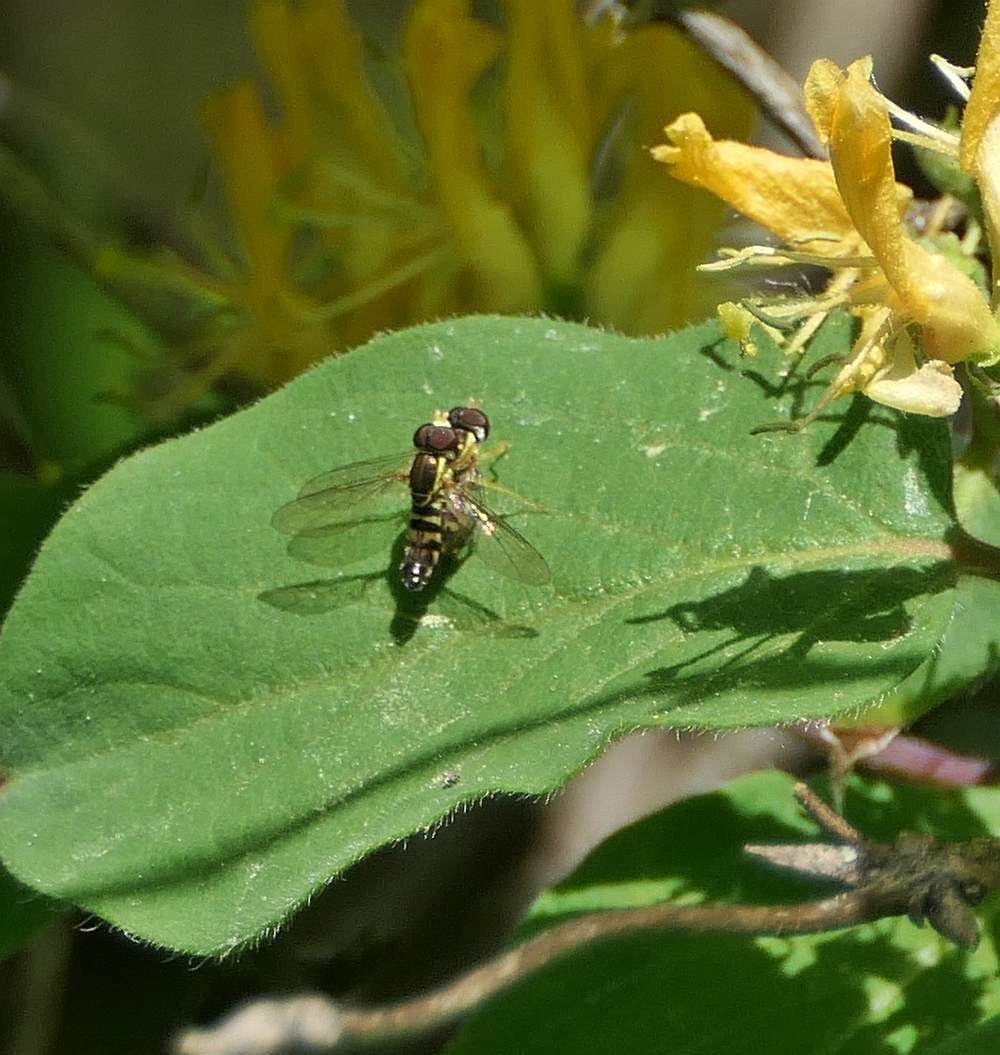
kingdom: Animalia
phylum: Arthropoda
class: Insecta
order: Diptera
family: Syrphidae
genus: Toxomerus
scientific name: Toxomerus geminatus
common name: Eastern calligrapher
